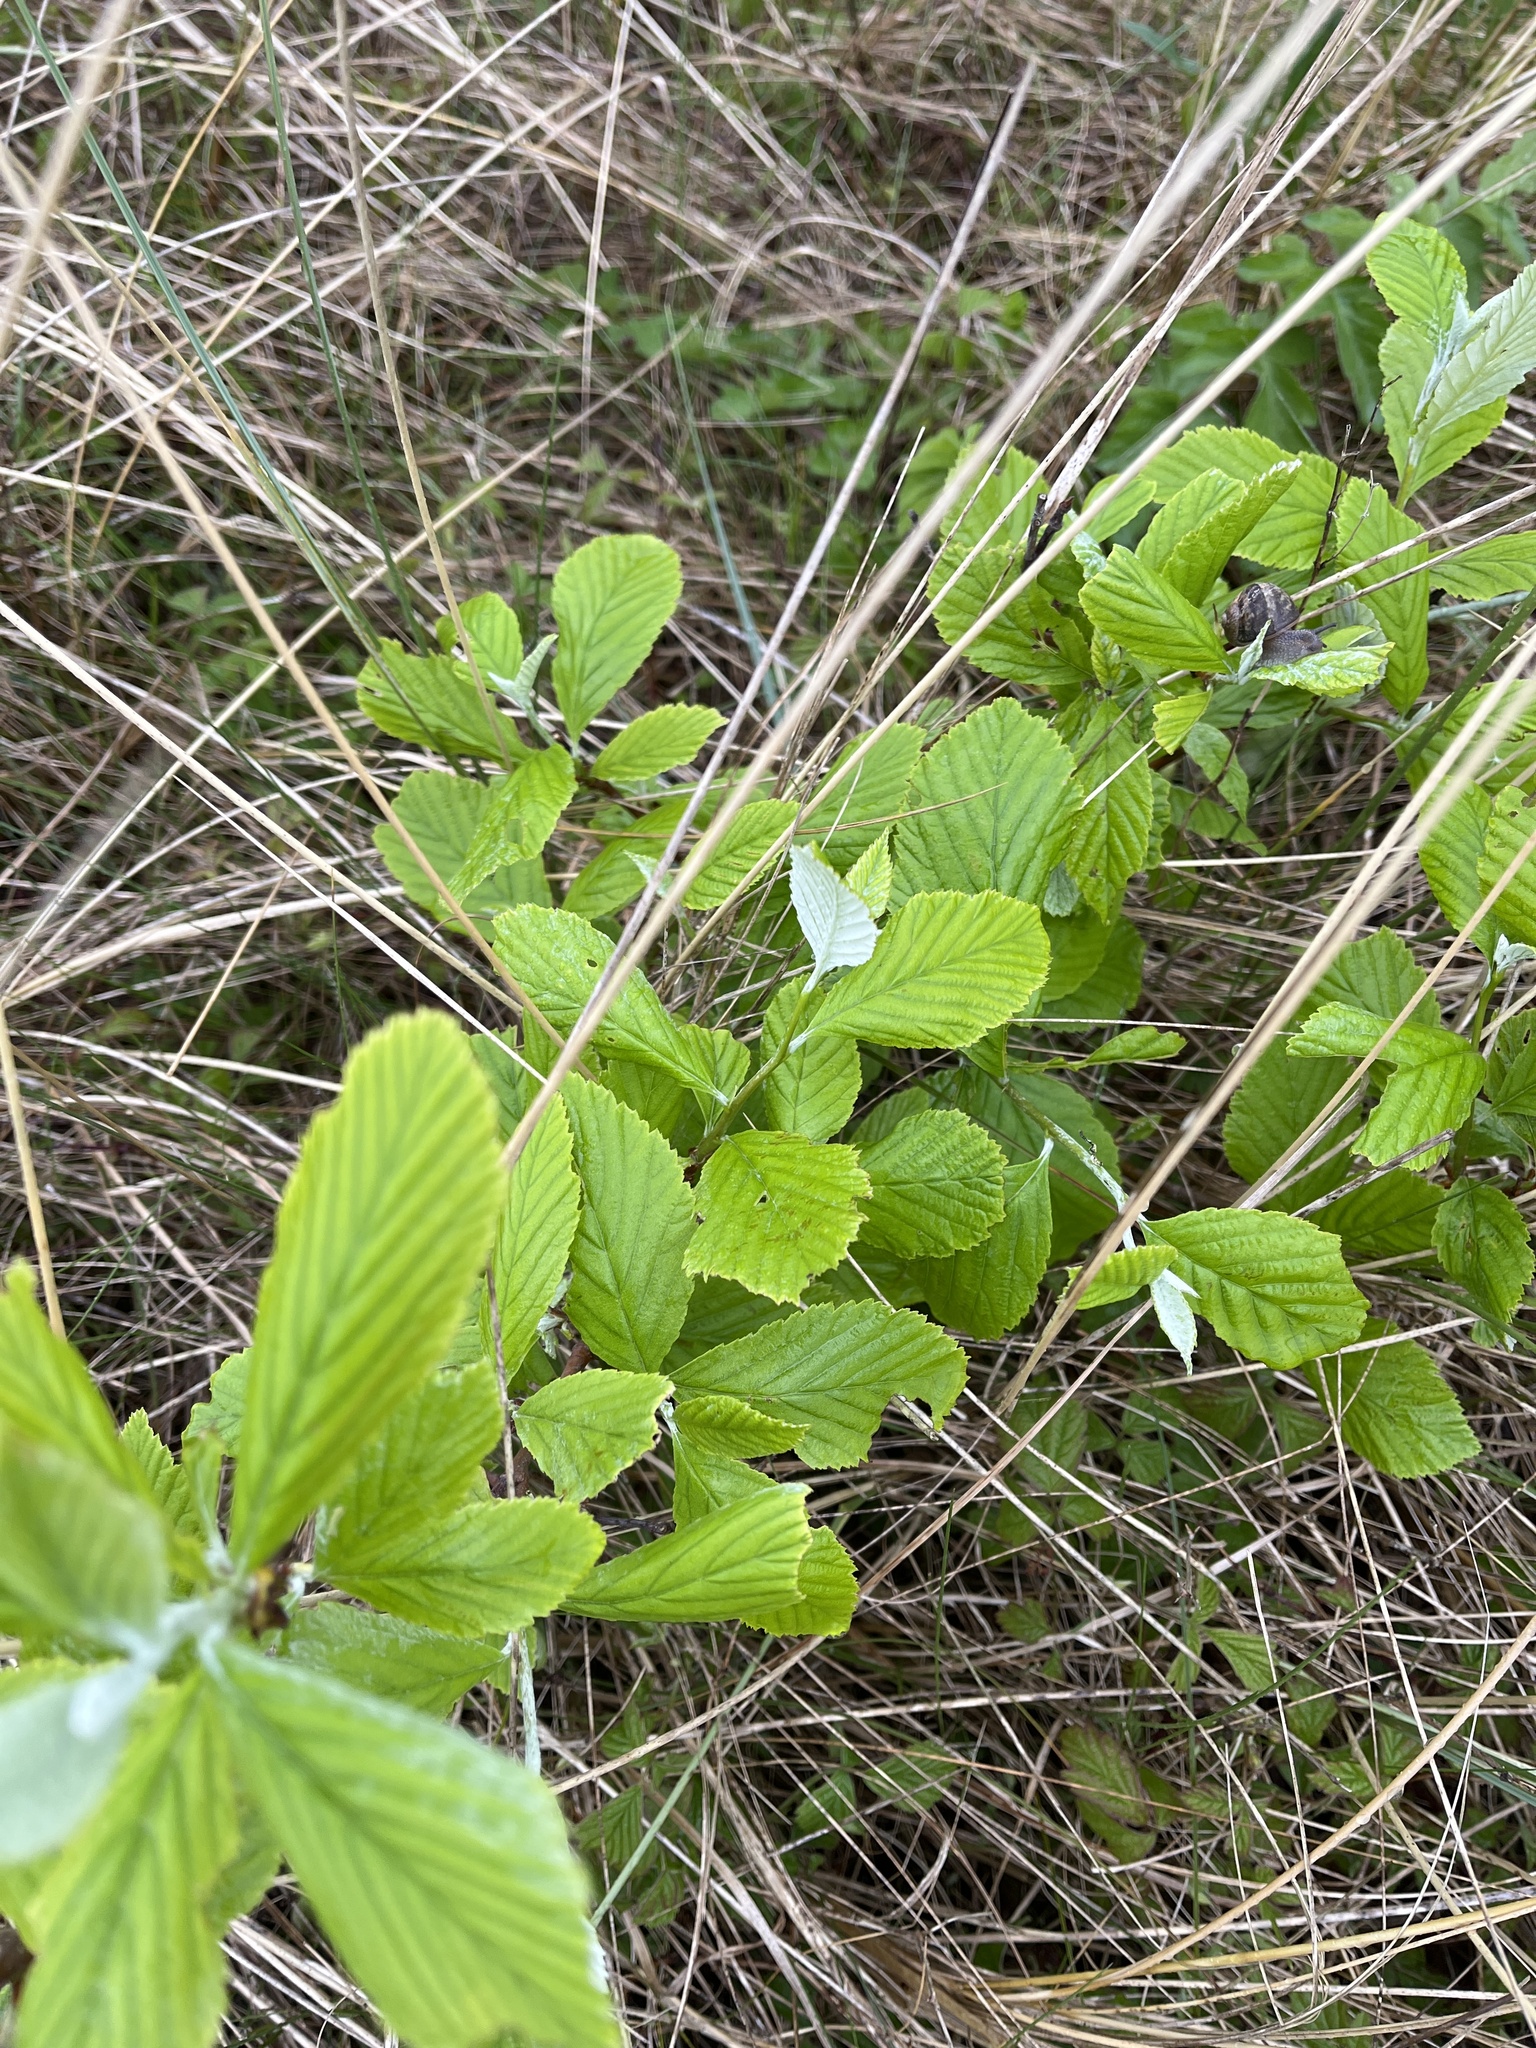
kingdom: Plantae
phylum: Tracheophyta
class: Magnoliopsida
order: Rosales
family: Rosaceae
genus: Aria
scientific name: Aria edulis
